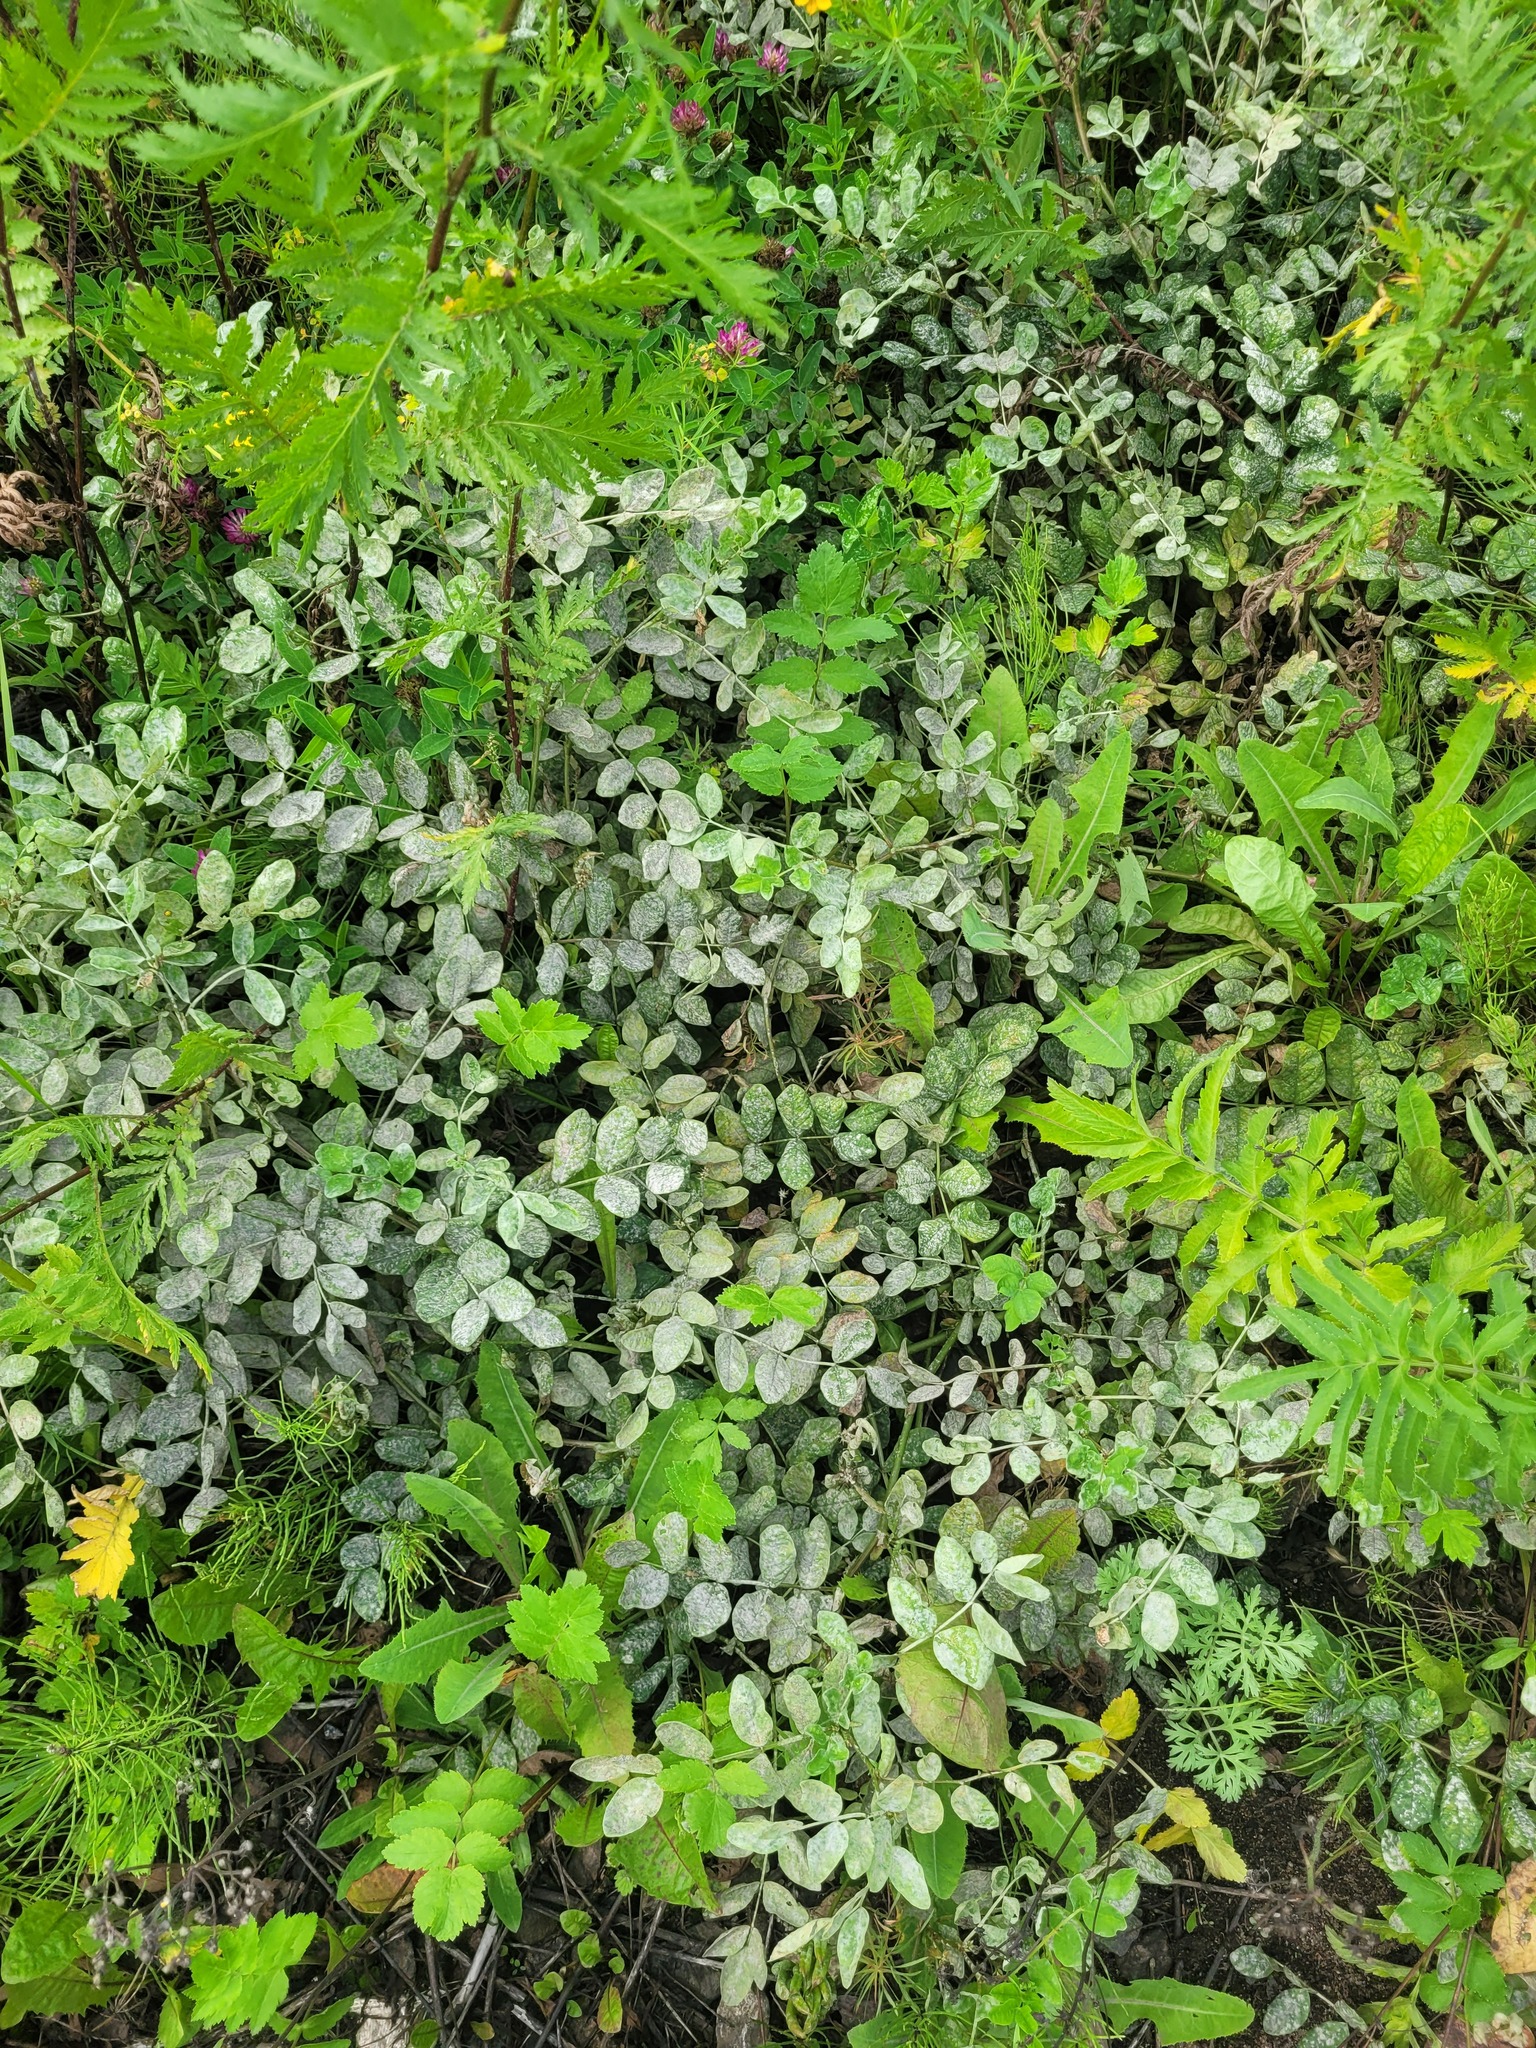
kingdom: Plantae
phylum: Tracheophyta
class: Magnoliopsida
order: Fabales
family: Fabaceae
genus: Astragalus
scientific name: Astragalus glycyphyllos
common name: Wild liquorice
